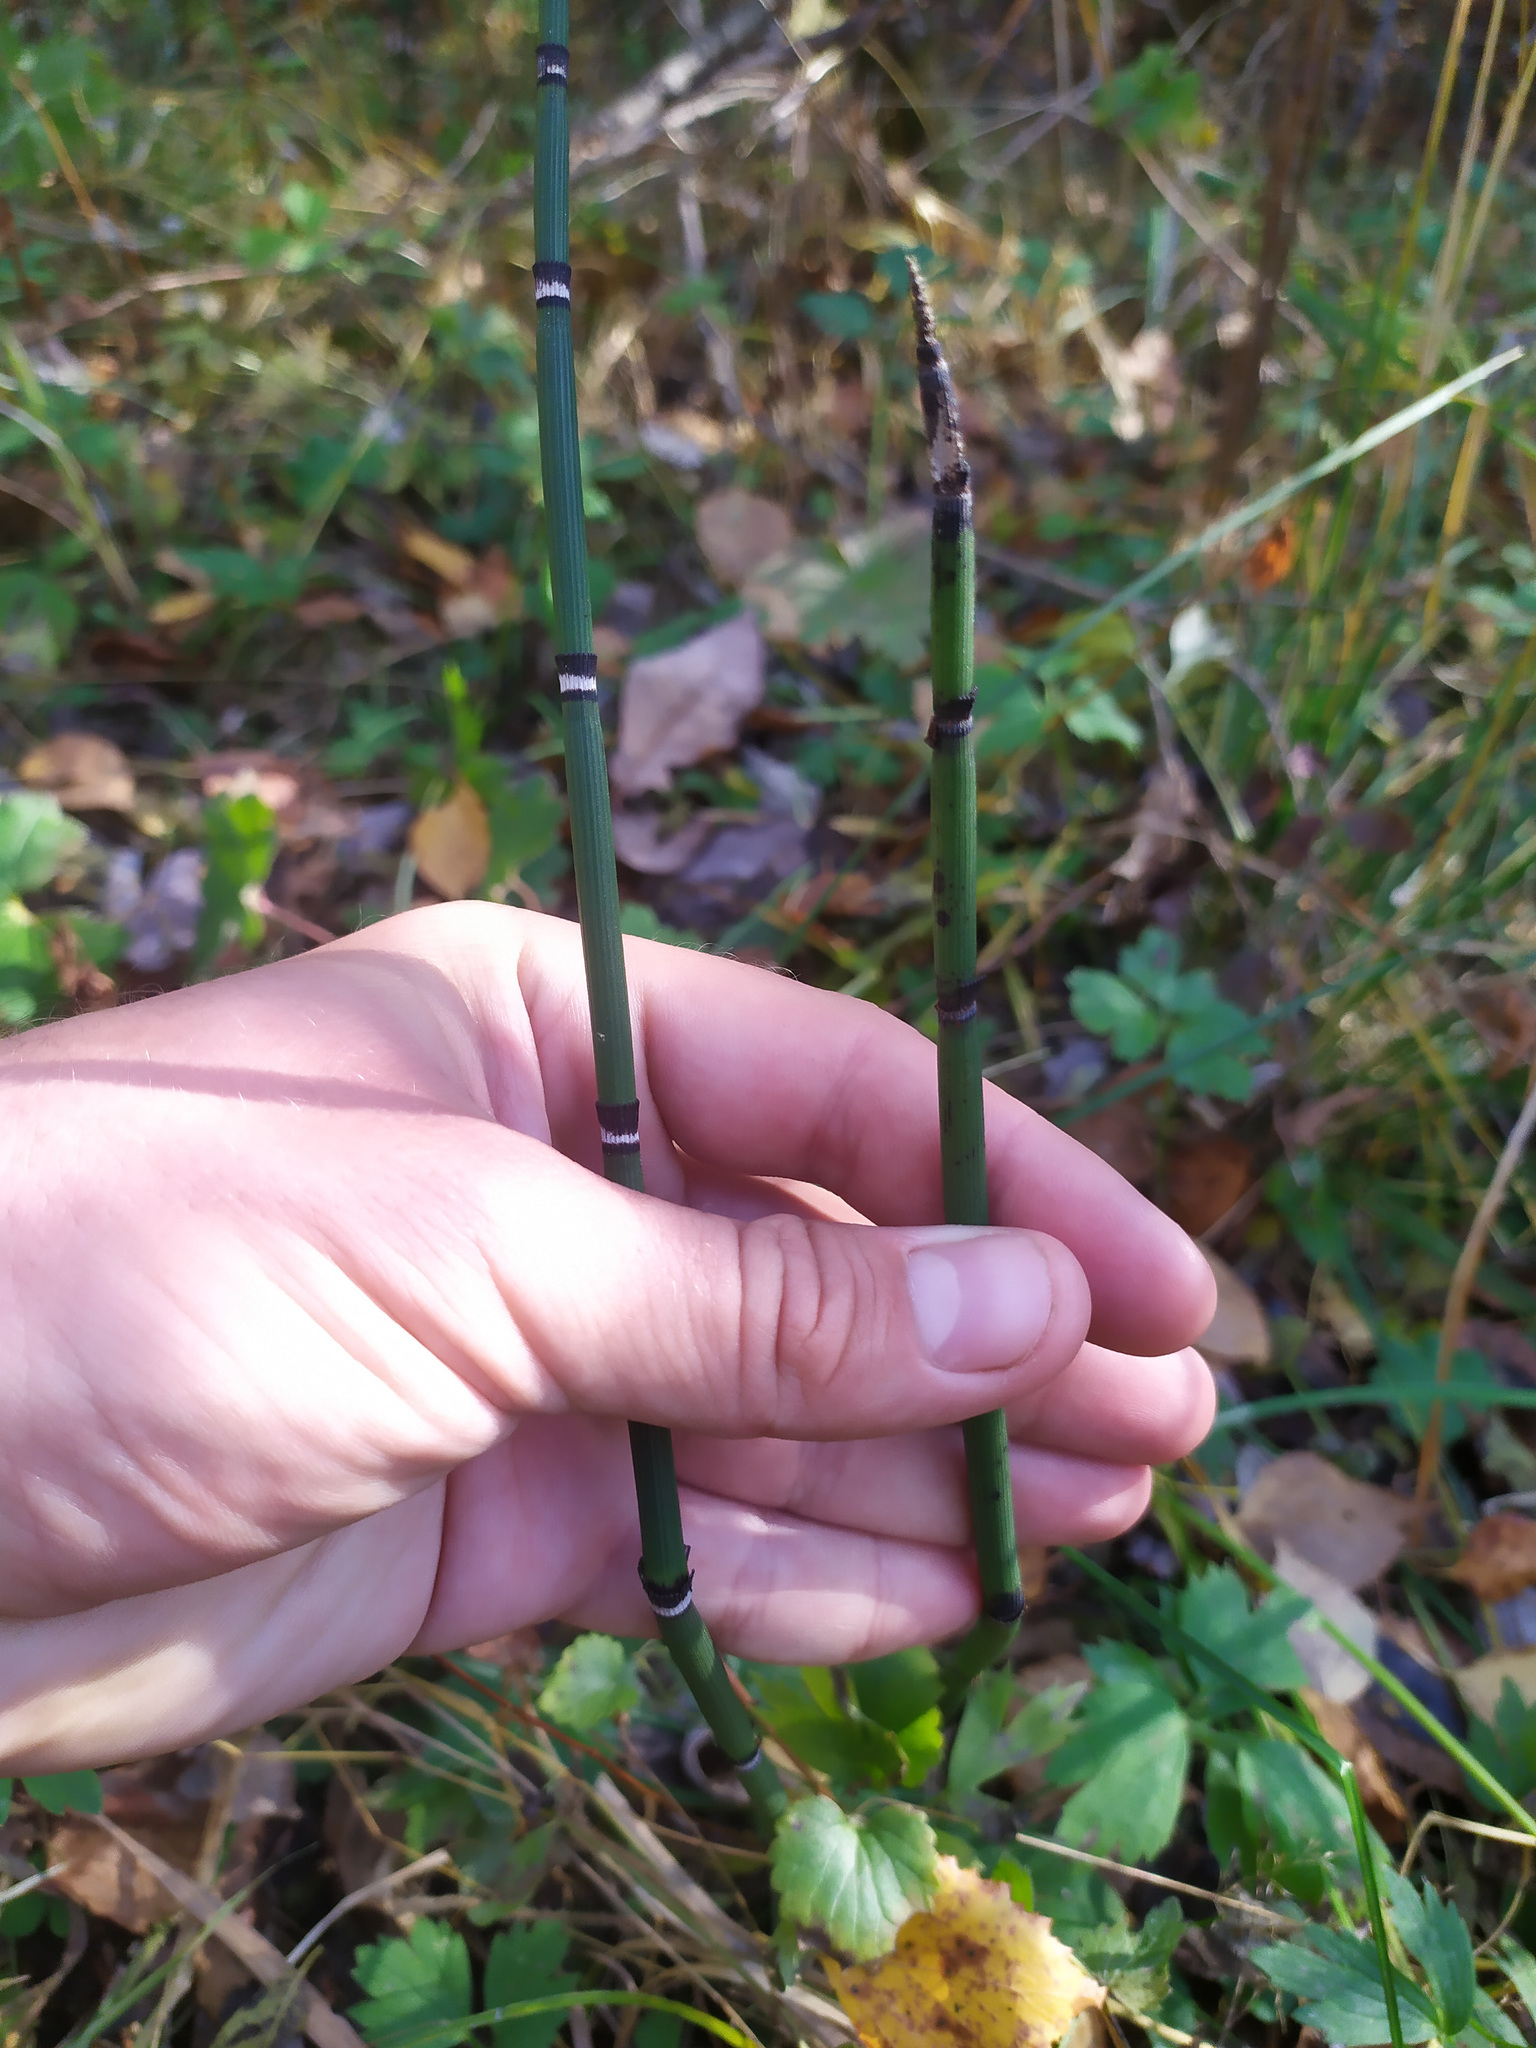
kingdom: Plantae
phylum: Tracheophyta
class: Polypodiopsida
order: Equisetales
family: Equisetaceae
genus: Equisetum
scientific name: Equisetum hyemale
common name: Rough horsetail
